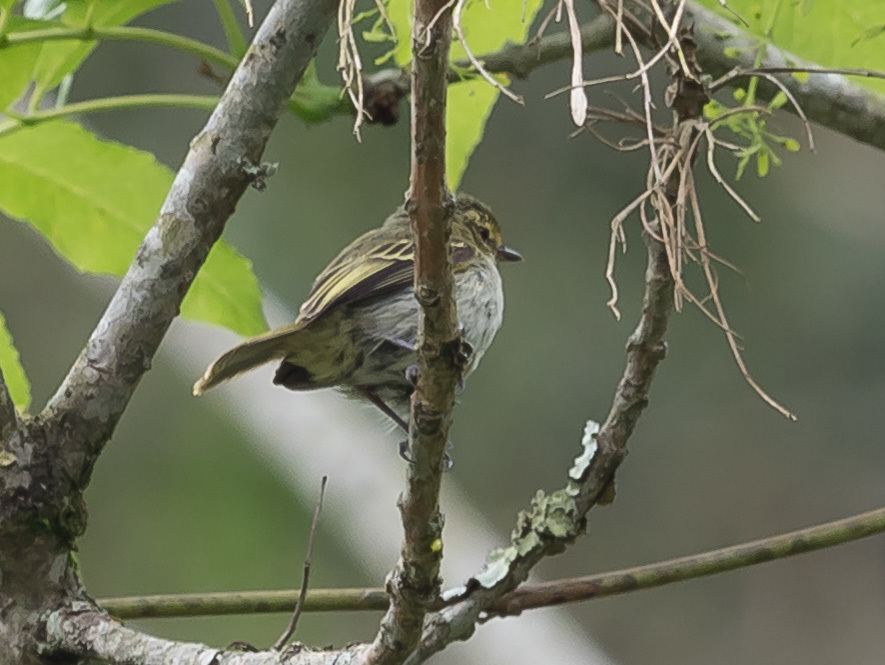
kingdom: Animalia
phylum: Chordata
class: Aves
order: Passeriformes
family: Tyrannidae
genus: Zimmerius
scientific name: Zimmerius chrysops
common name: Golden-faced tyrannulet
